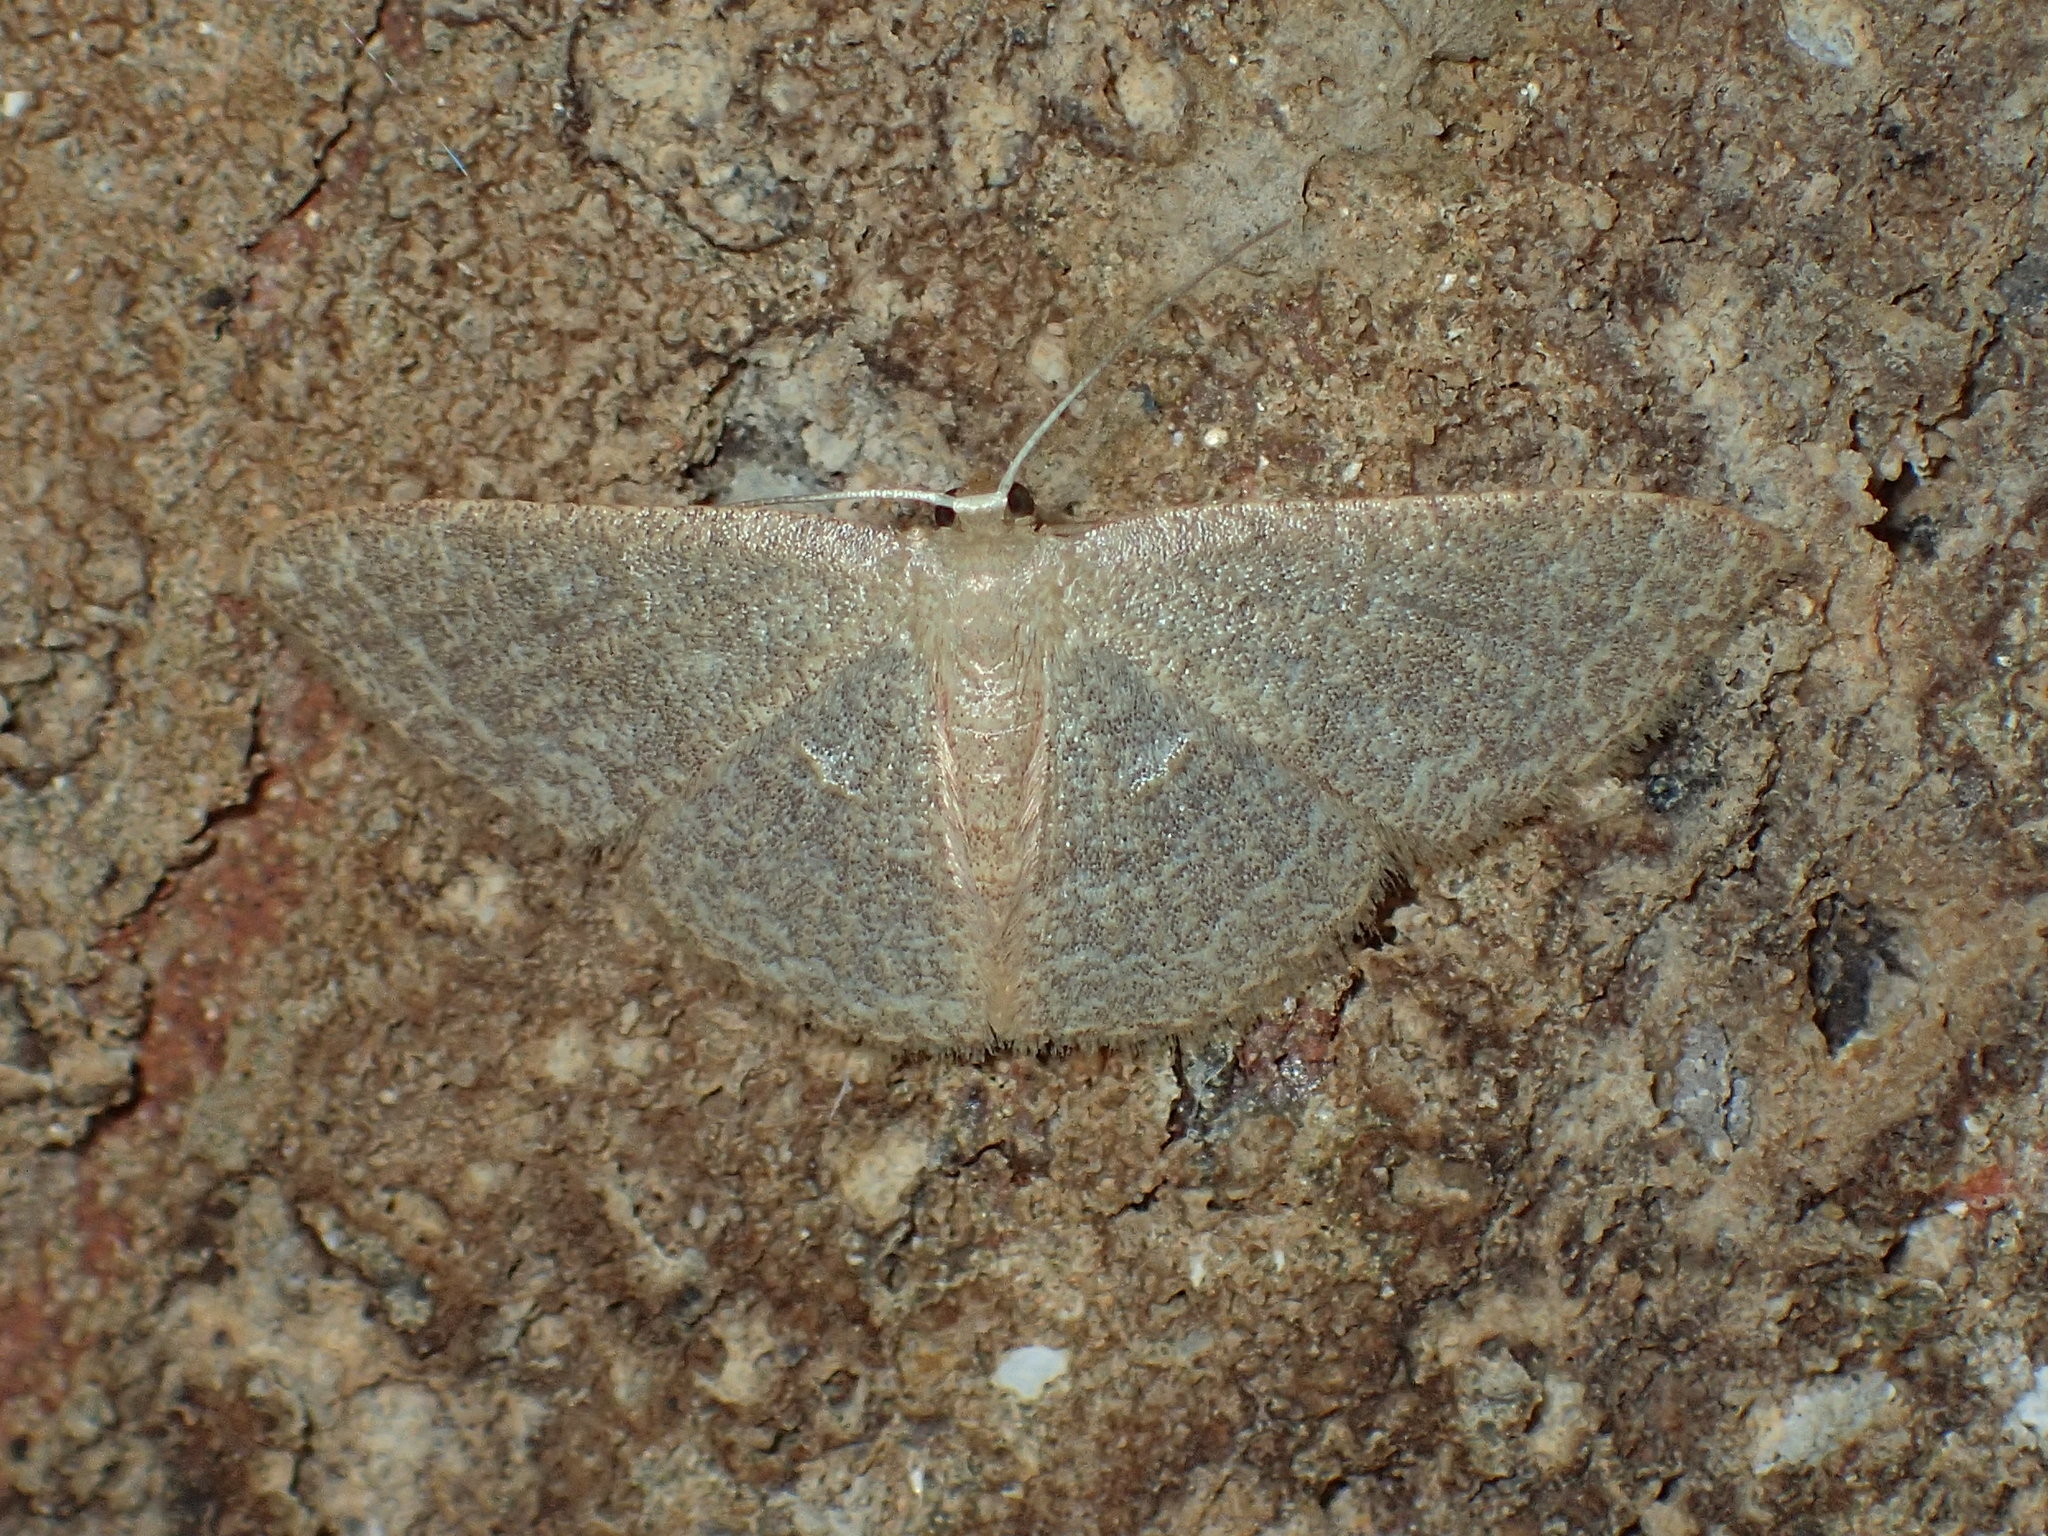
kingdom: Animalia
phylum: Arthropoda
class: Insecta
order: Lepidoptera
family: Geometridae
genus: Pleuroprucha
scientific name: Pleuroprucha insulsaria
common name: Common tan wave
